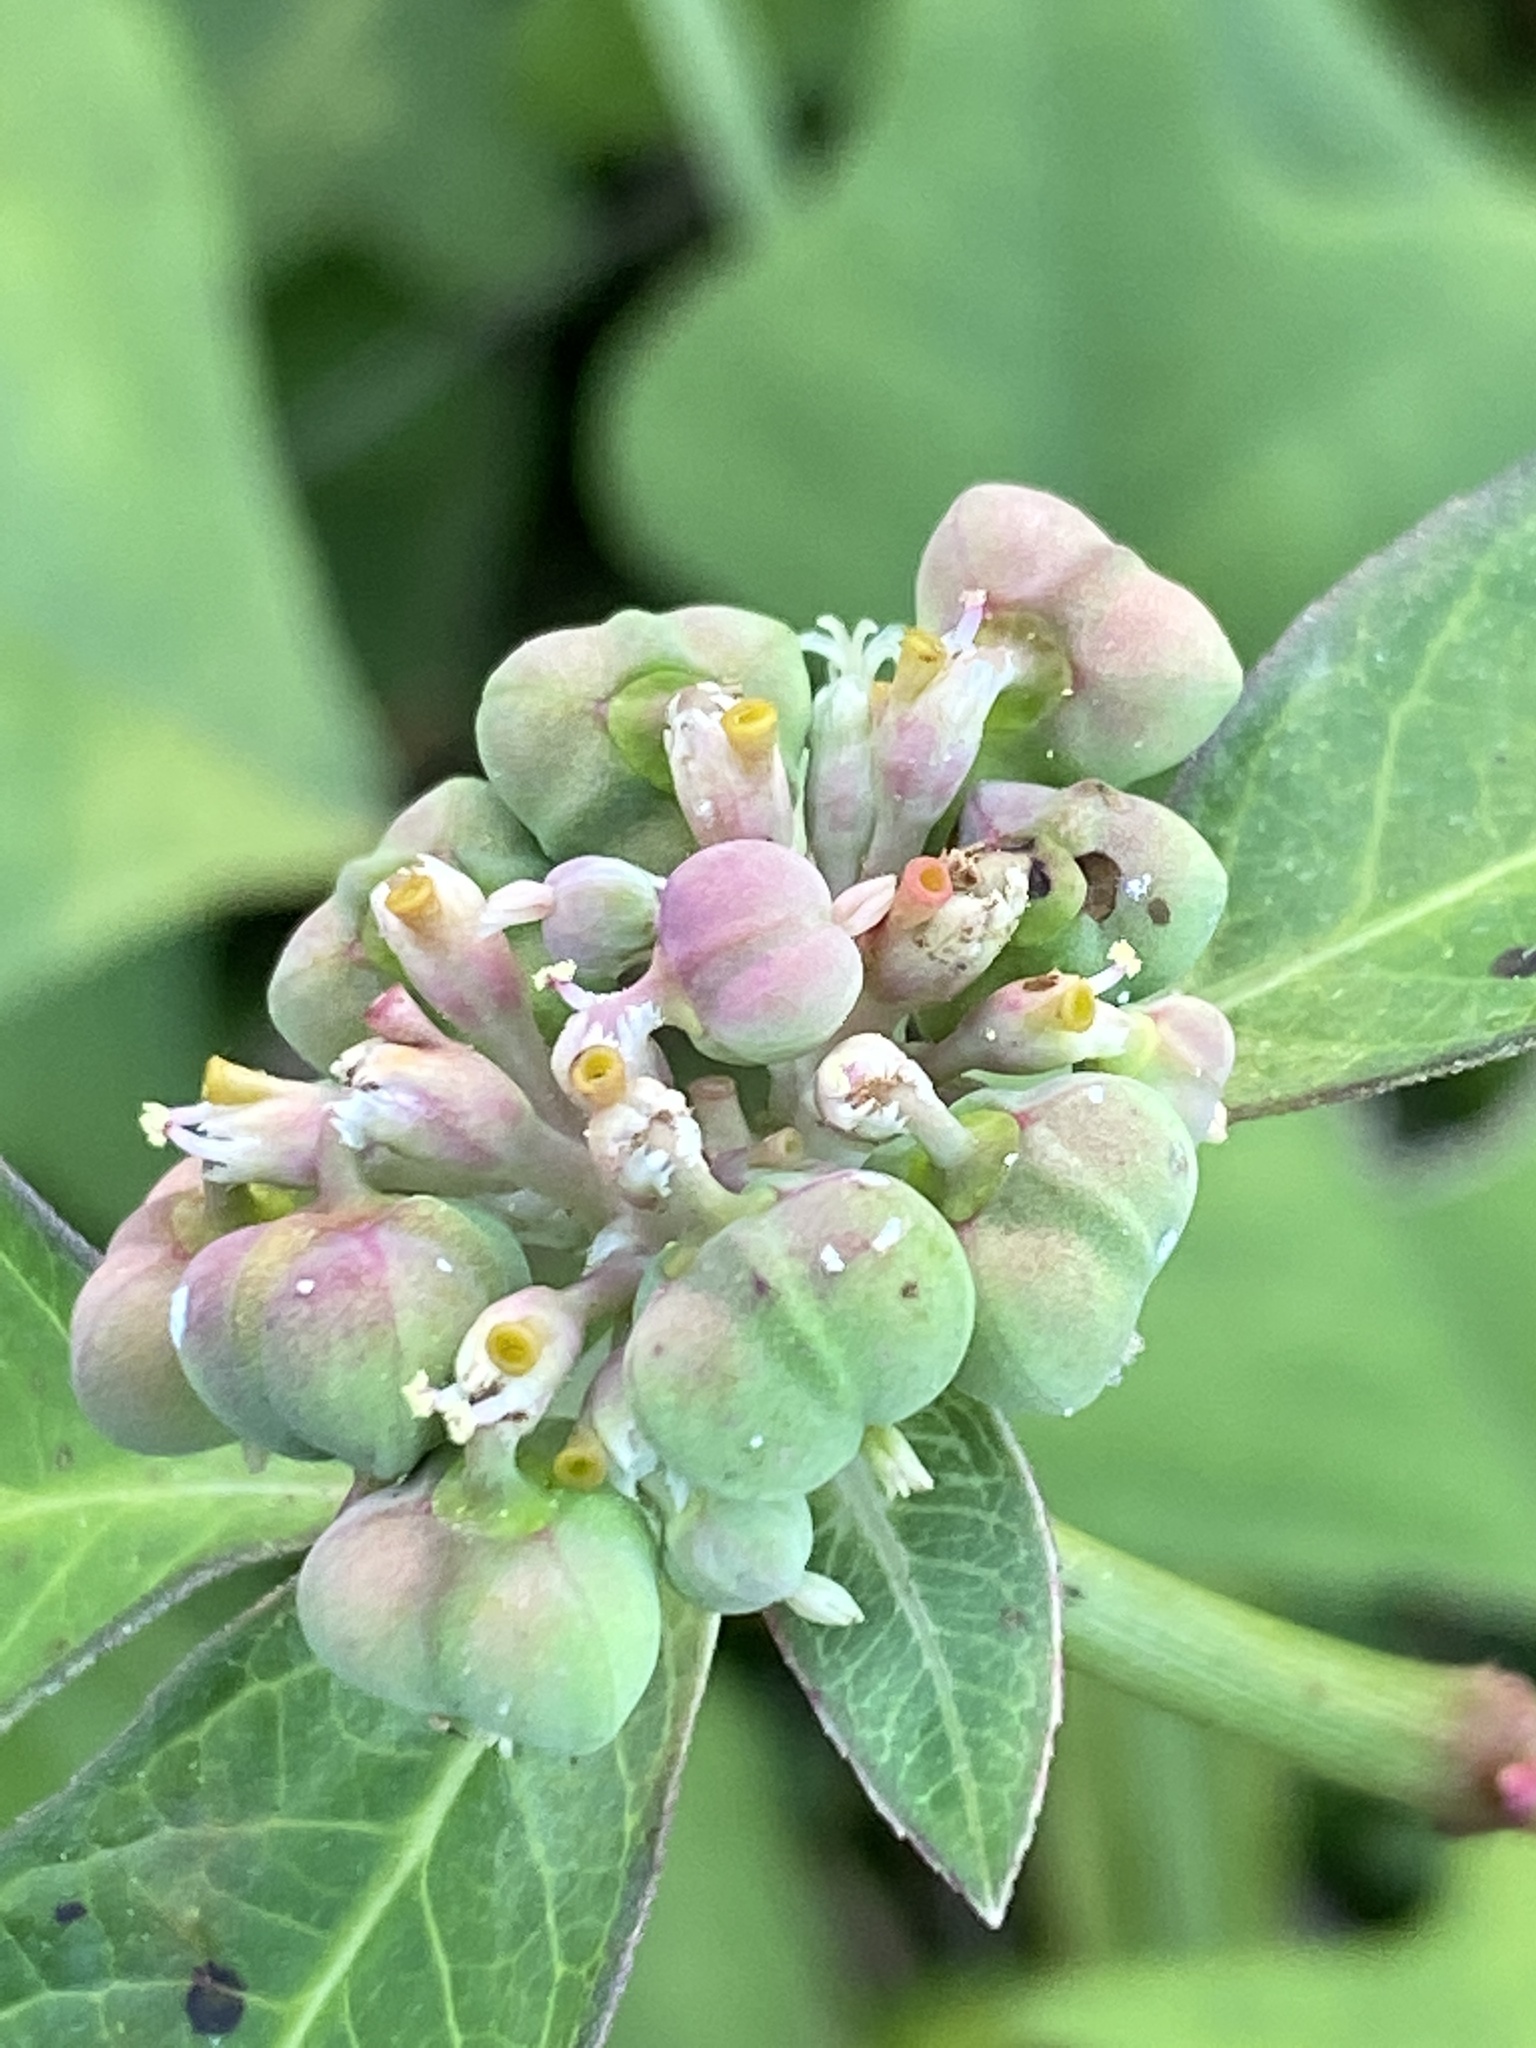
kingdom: Plantae
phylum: Tracheophyta
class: Magnoliopsida
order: Malpighiales
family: Euphorbiaceae
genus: Euphorbia
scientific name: Euphorbia heterophylla
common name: Mexican fireplant
